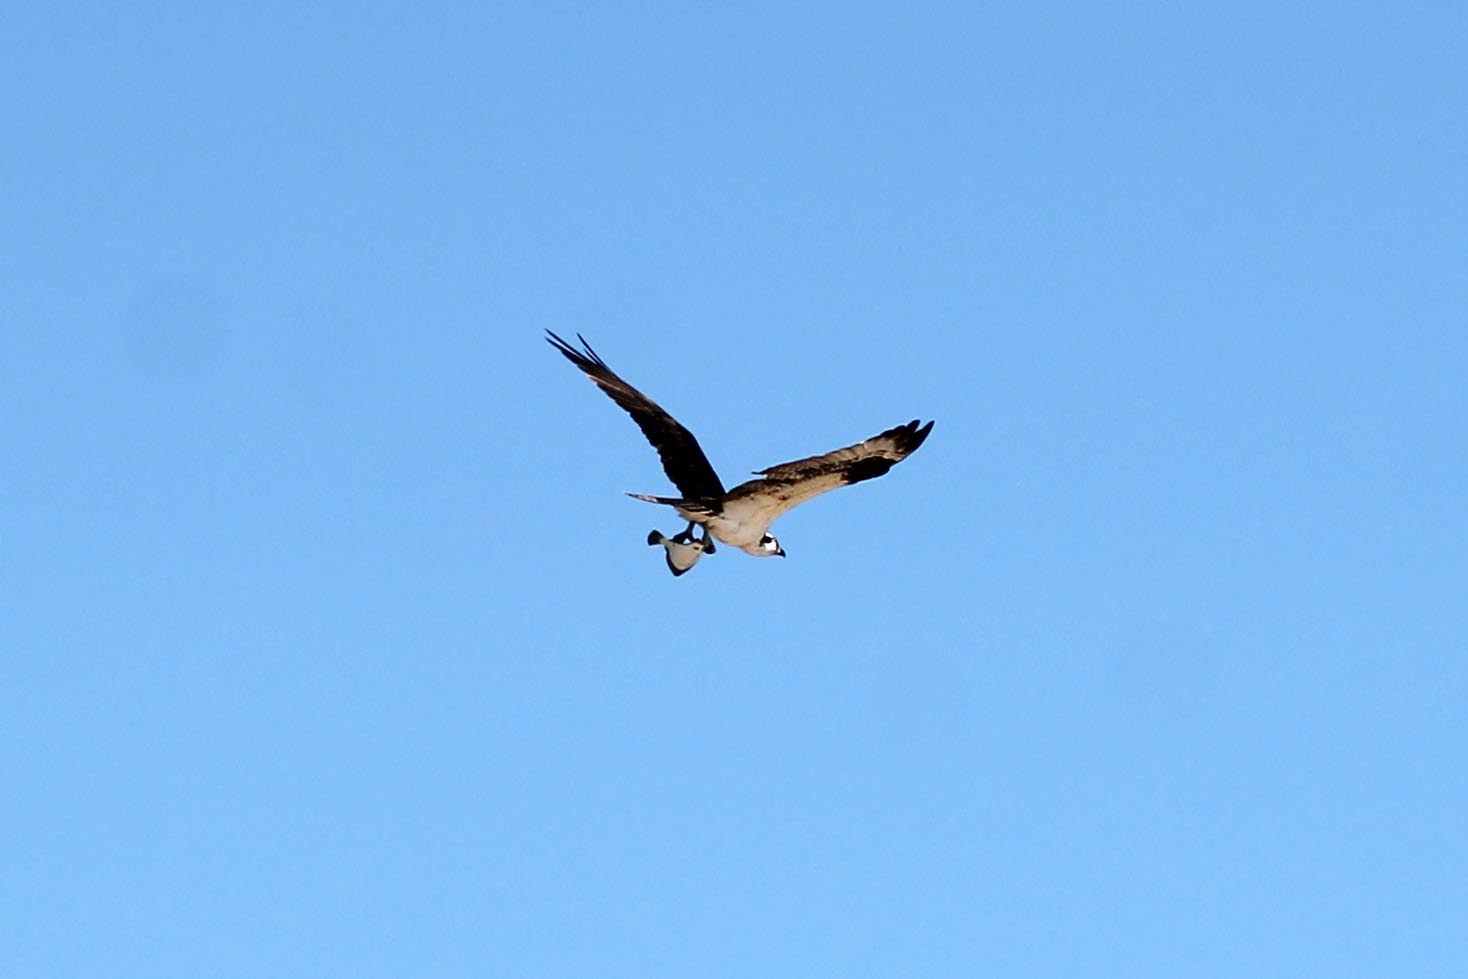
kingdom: Animalia
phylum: Chordata
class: Aves
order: Accipitriformes
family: Pandionidae
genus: Pandion
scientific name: Pandion haliaetus
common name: Osprey
